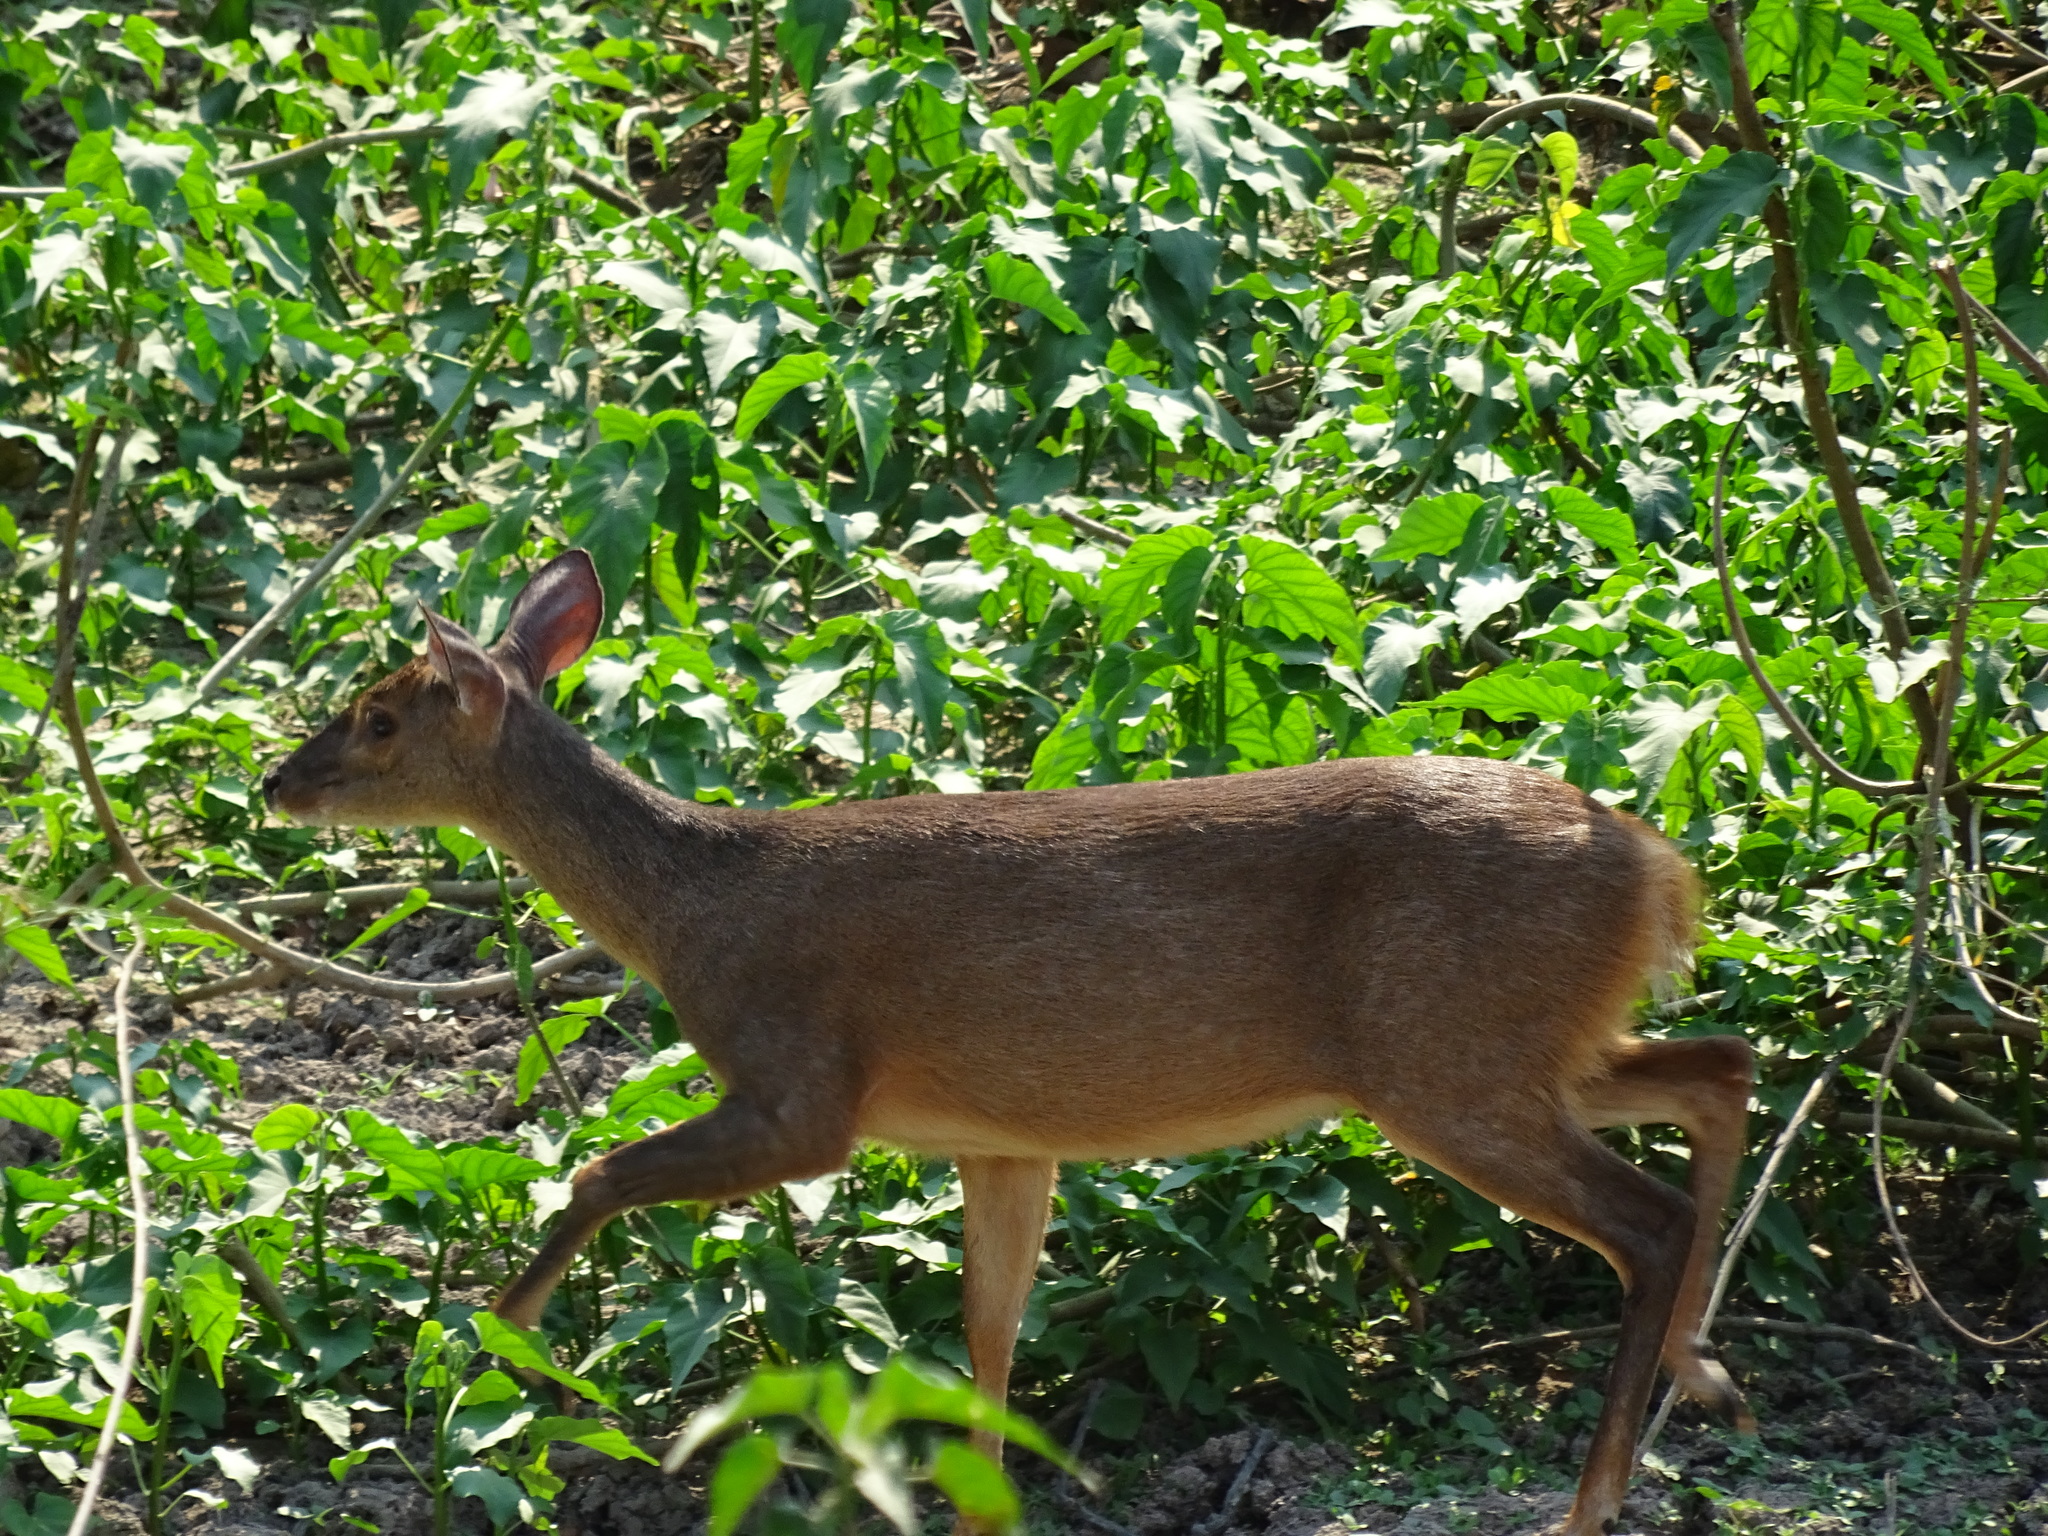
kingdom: Animalia
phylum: Chordata
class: Mammalia
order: Artiodactyla
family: Cervidae
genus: Mazama
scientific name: Mazama gouazoubira
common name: Gray brocket
